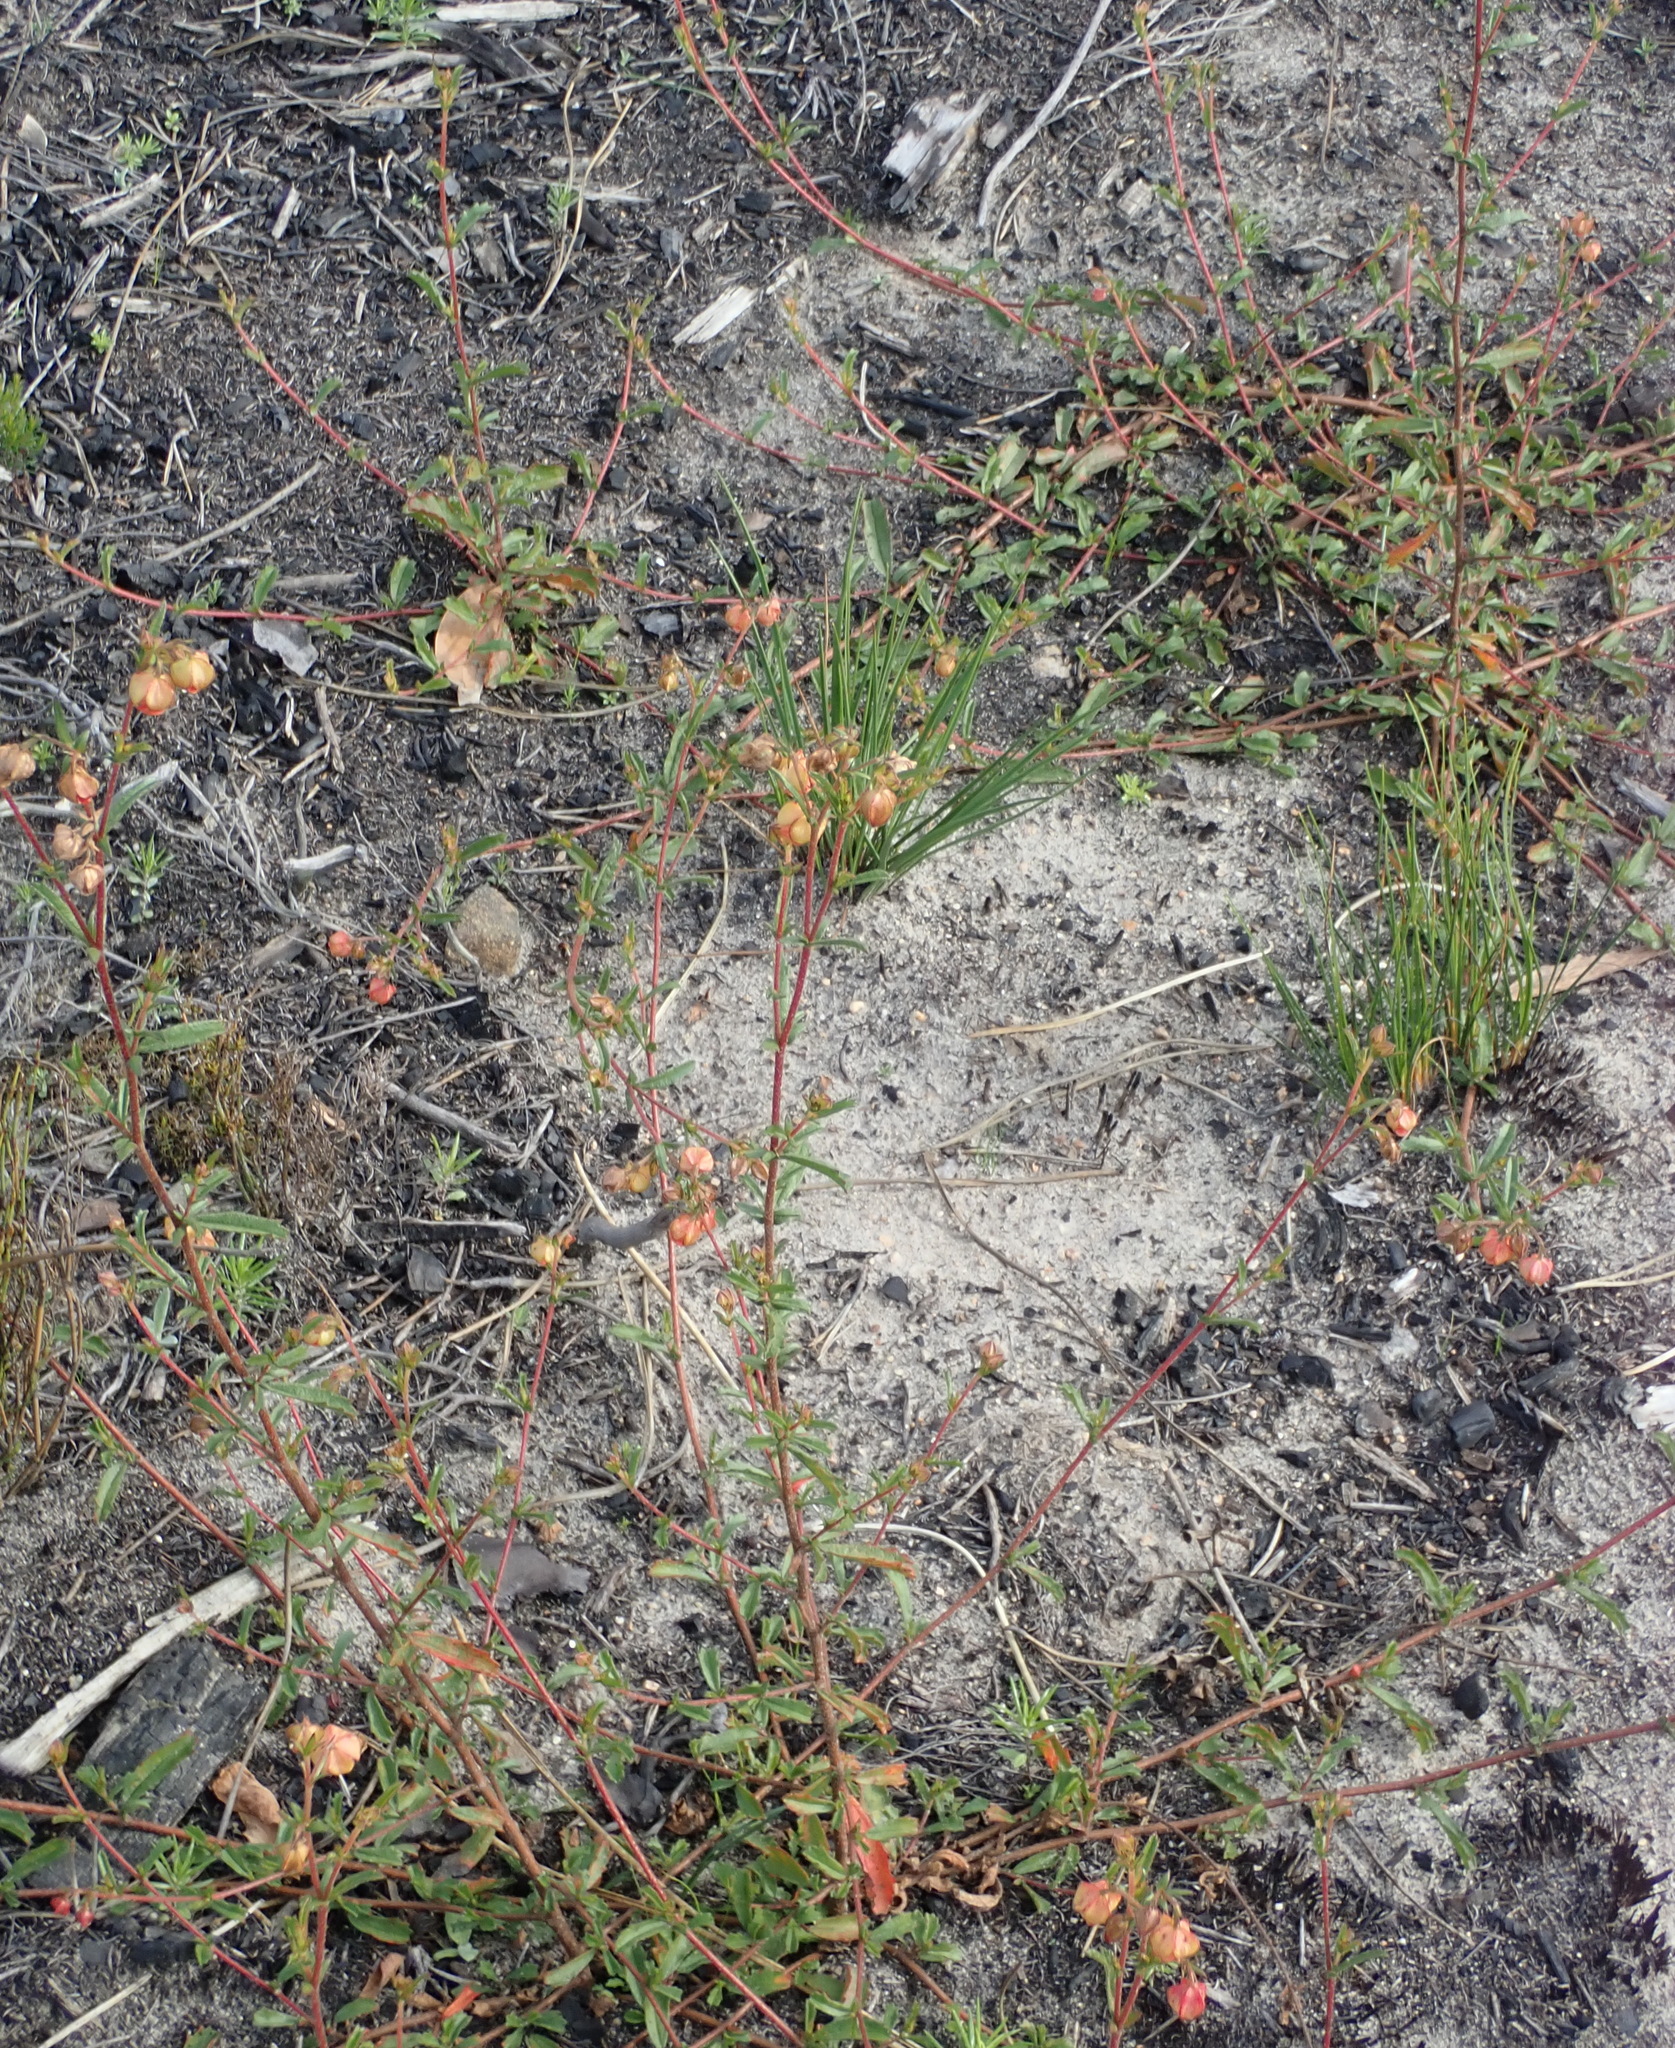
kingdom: Plantae
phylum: Tracheophyta
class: Magnoliopsida
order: Malvales
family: Malvaceae
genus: Hermannia
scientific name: Hermannia angularis
